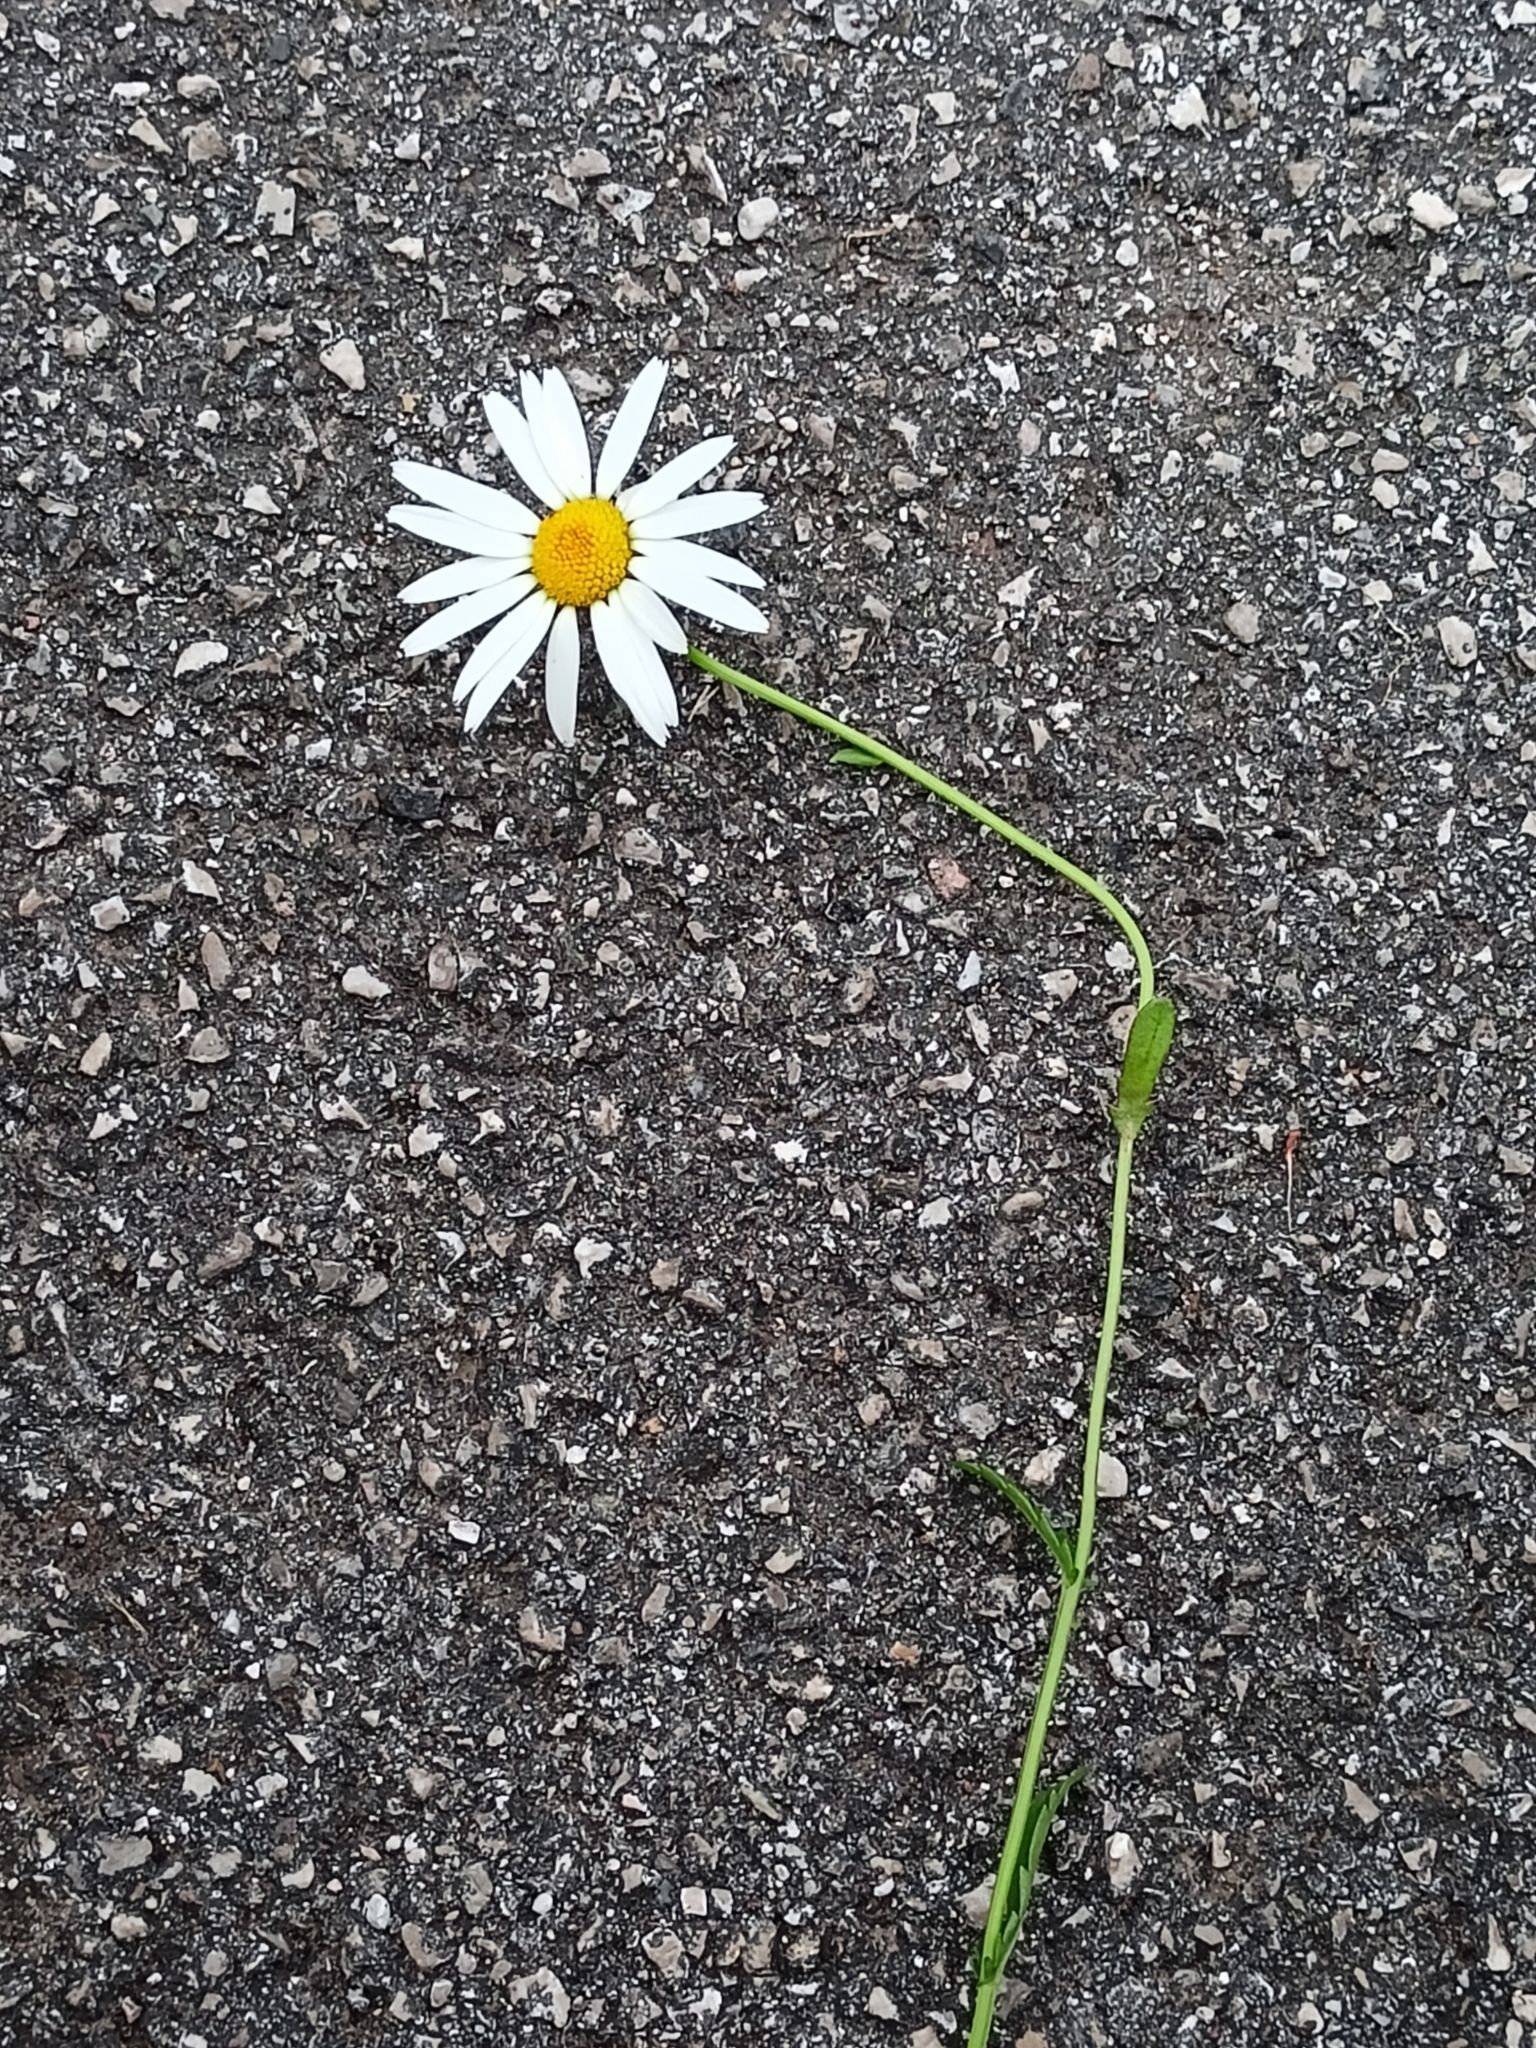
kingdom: Plantae
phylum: Tracheophyta
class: Magnoliopsida
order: Asterales
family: Asteraceae
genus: Leucanthemum
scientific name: Leucanthemum ircutianum
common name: Daisy
